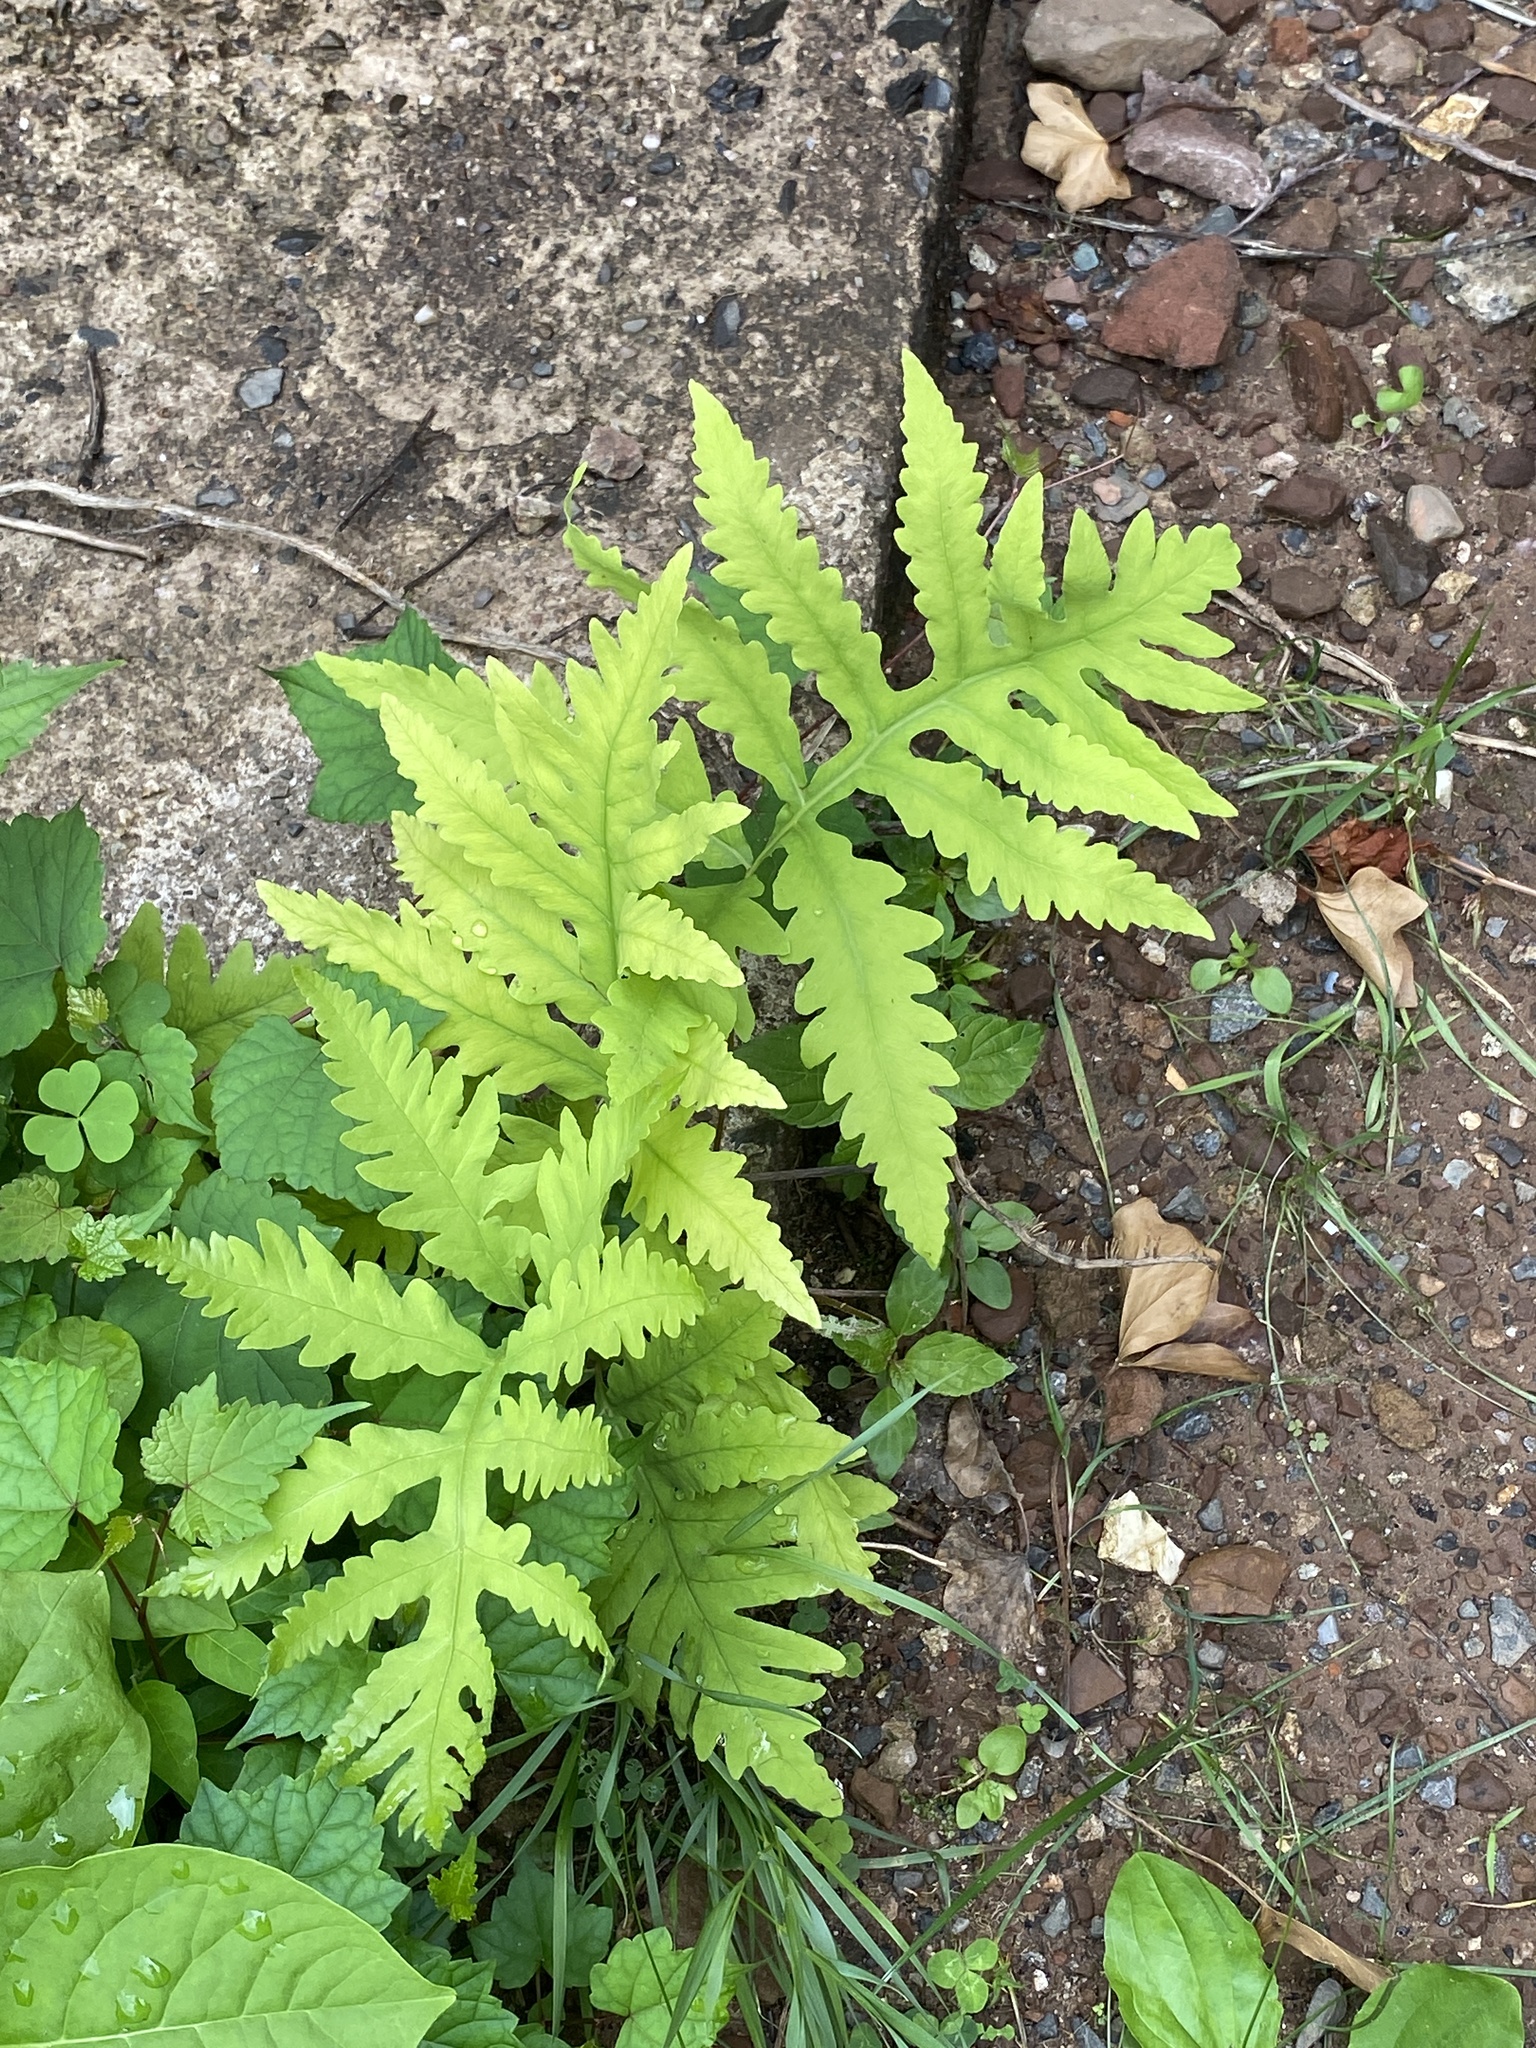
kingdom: Plantae
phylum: Tracheophyta
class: Polypodiopsida
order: Polypodiales
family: Onocleaceae
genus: Onoclea
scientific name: Onoclea sensibilis
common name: Sensitive fern
